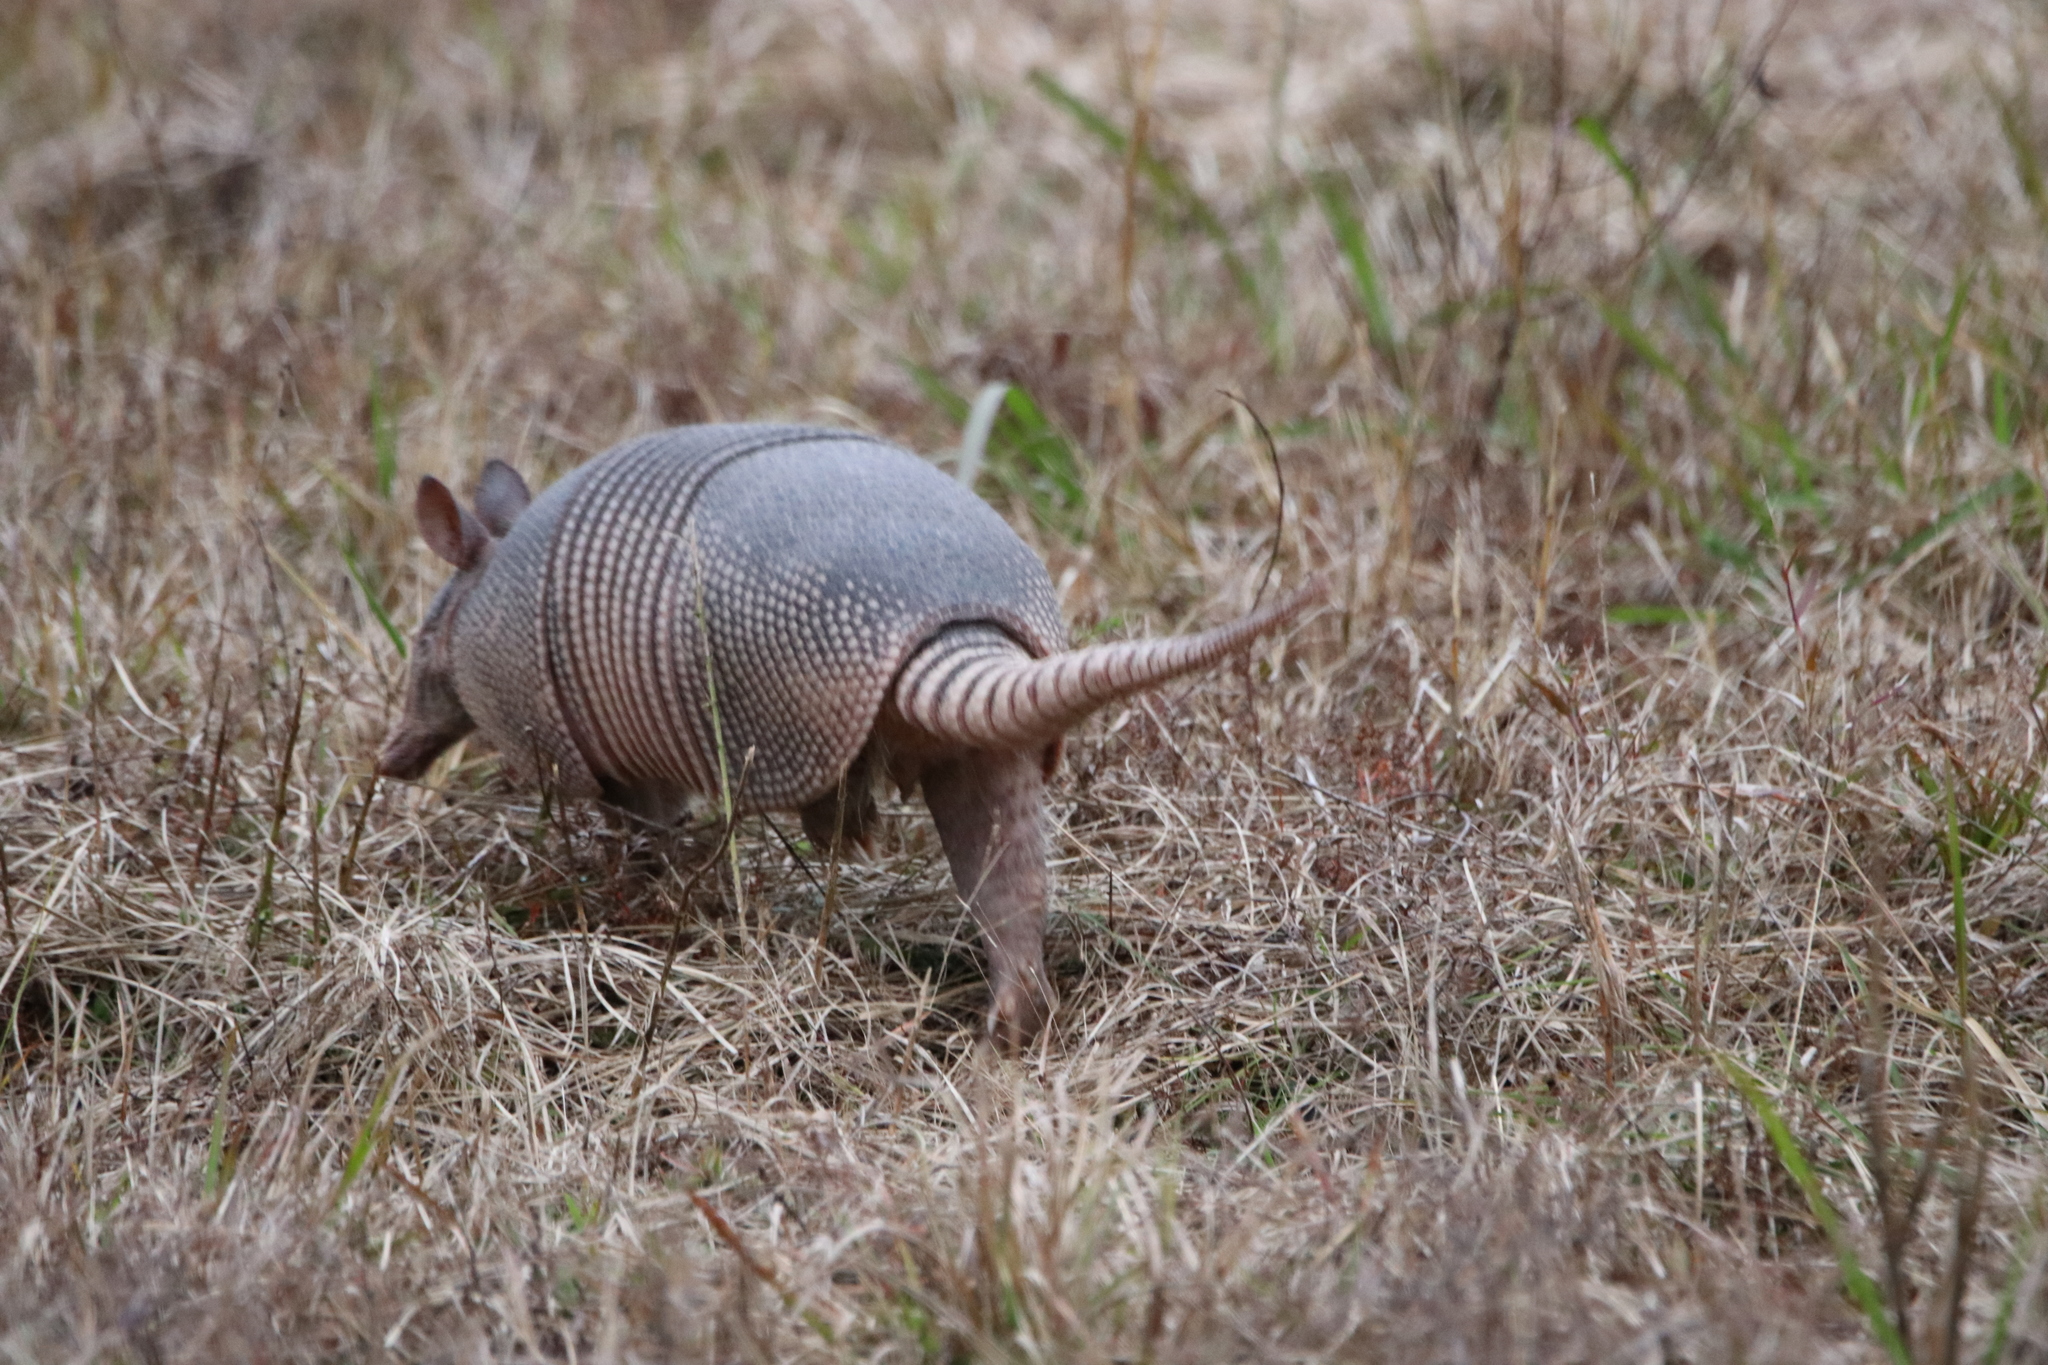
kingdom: Animalia
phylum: Chordata
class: Mammalia
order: Cingulata
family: Dasypodidae
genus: Dasypus
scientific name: Dasypus novemcinctus
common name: Nine-banded armadillo
